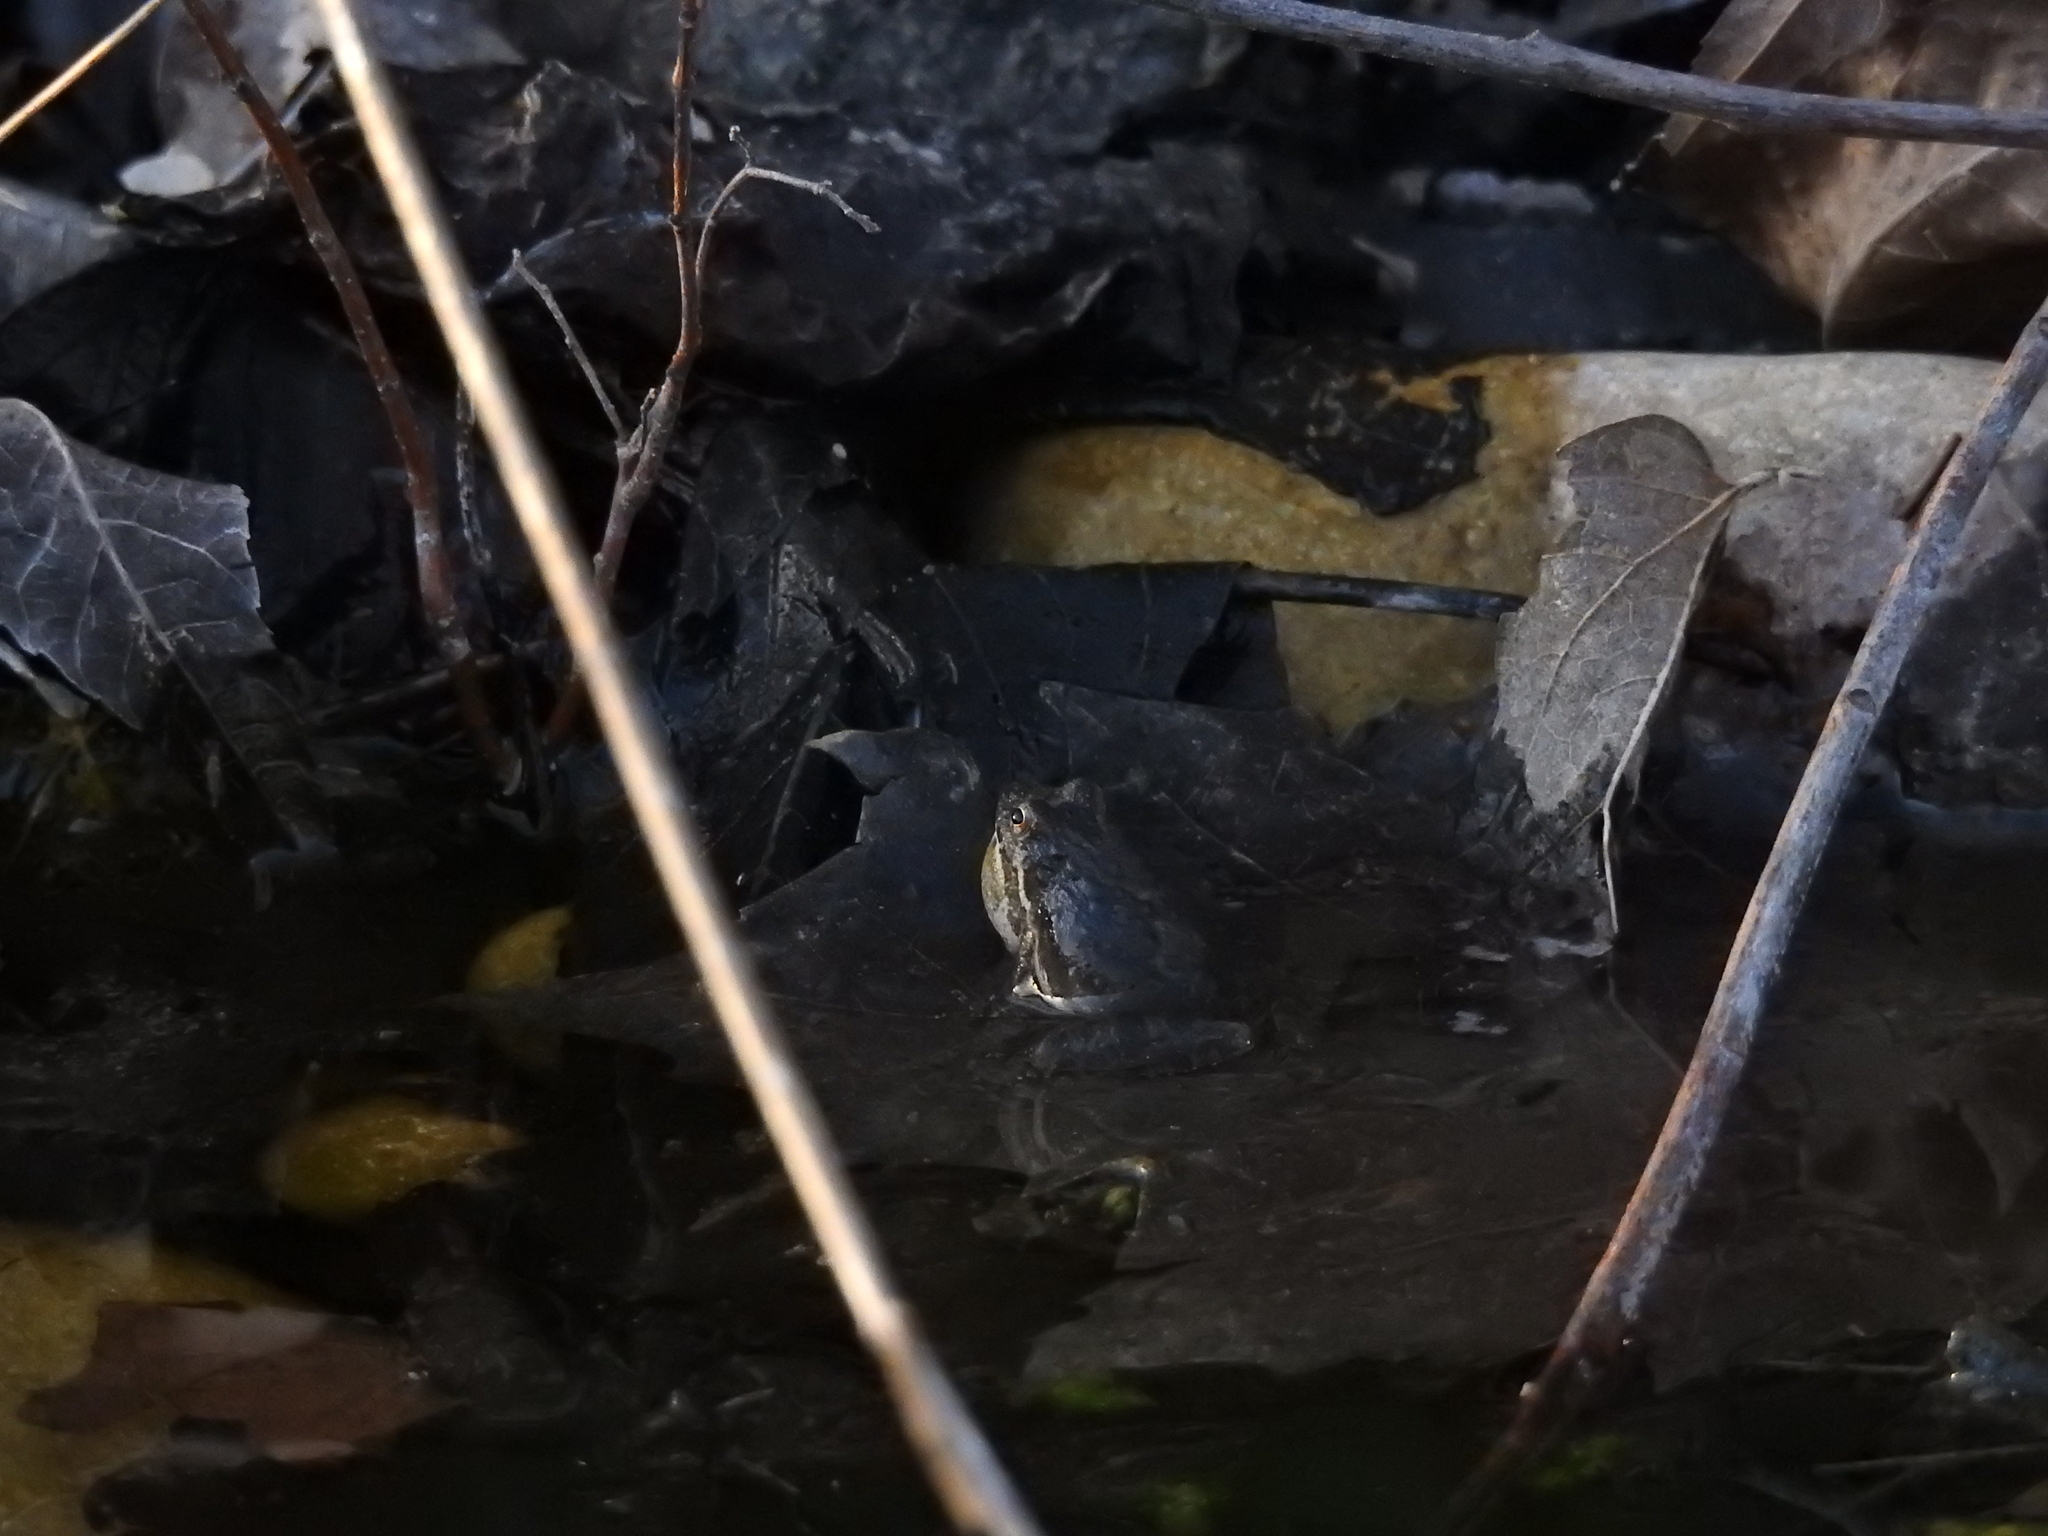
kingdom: Animalia
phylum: Chordata
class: Amphibia
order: Anura
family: Hylidae
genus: Acris
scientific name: Acris blanchardi
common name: Blanchard's cricket frog
